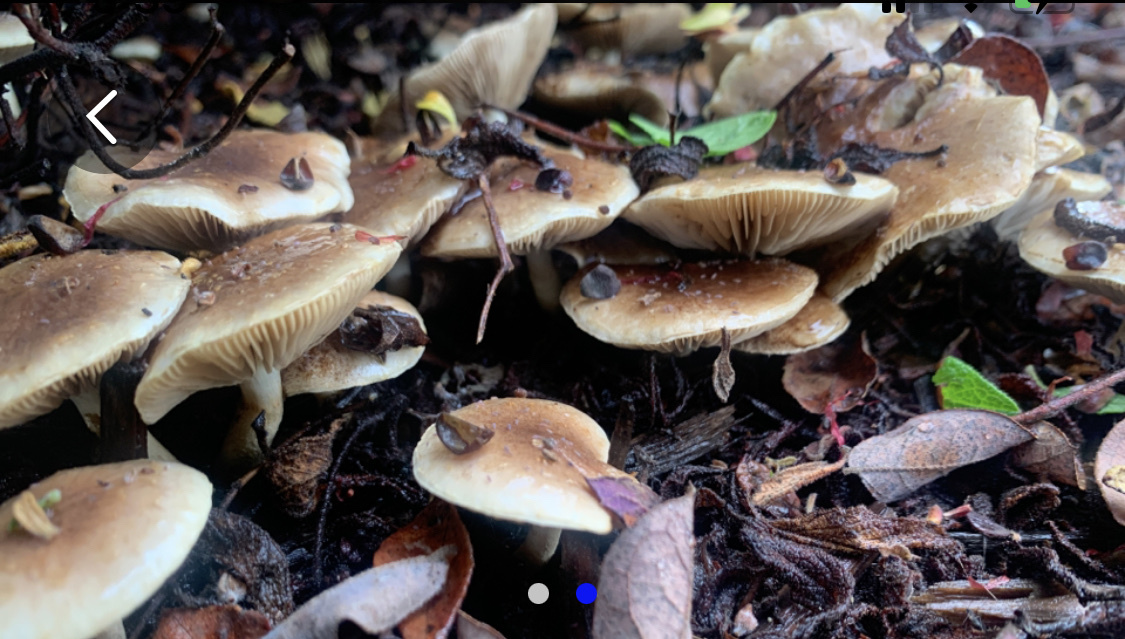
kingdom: Fungi
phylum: Basidiomycota
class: Agaricomycetes
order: Agaricales
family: Strophariaceae
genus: Pholiota
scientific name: Pholiota spumosa
